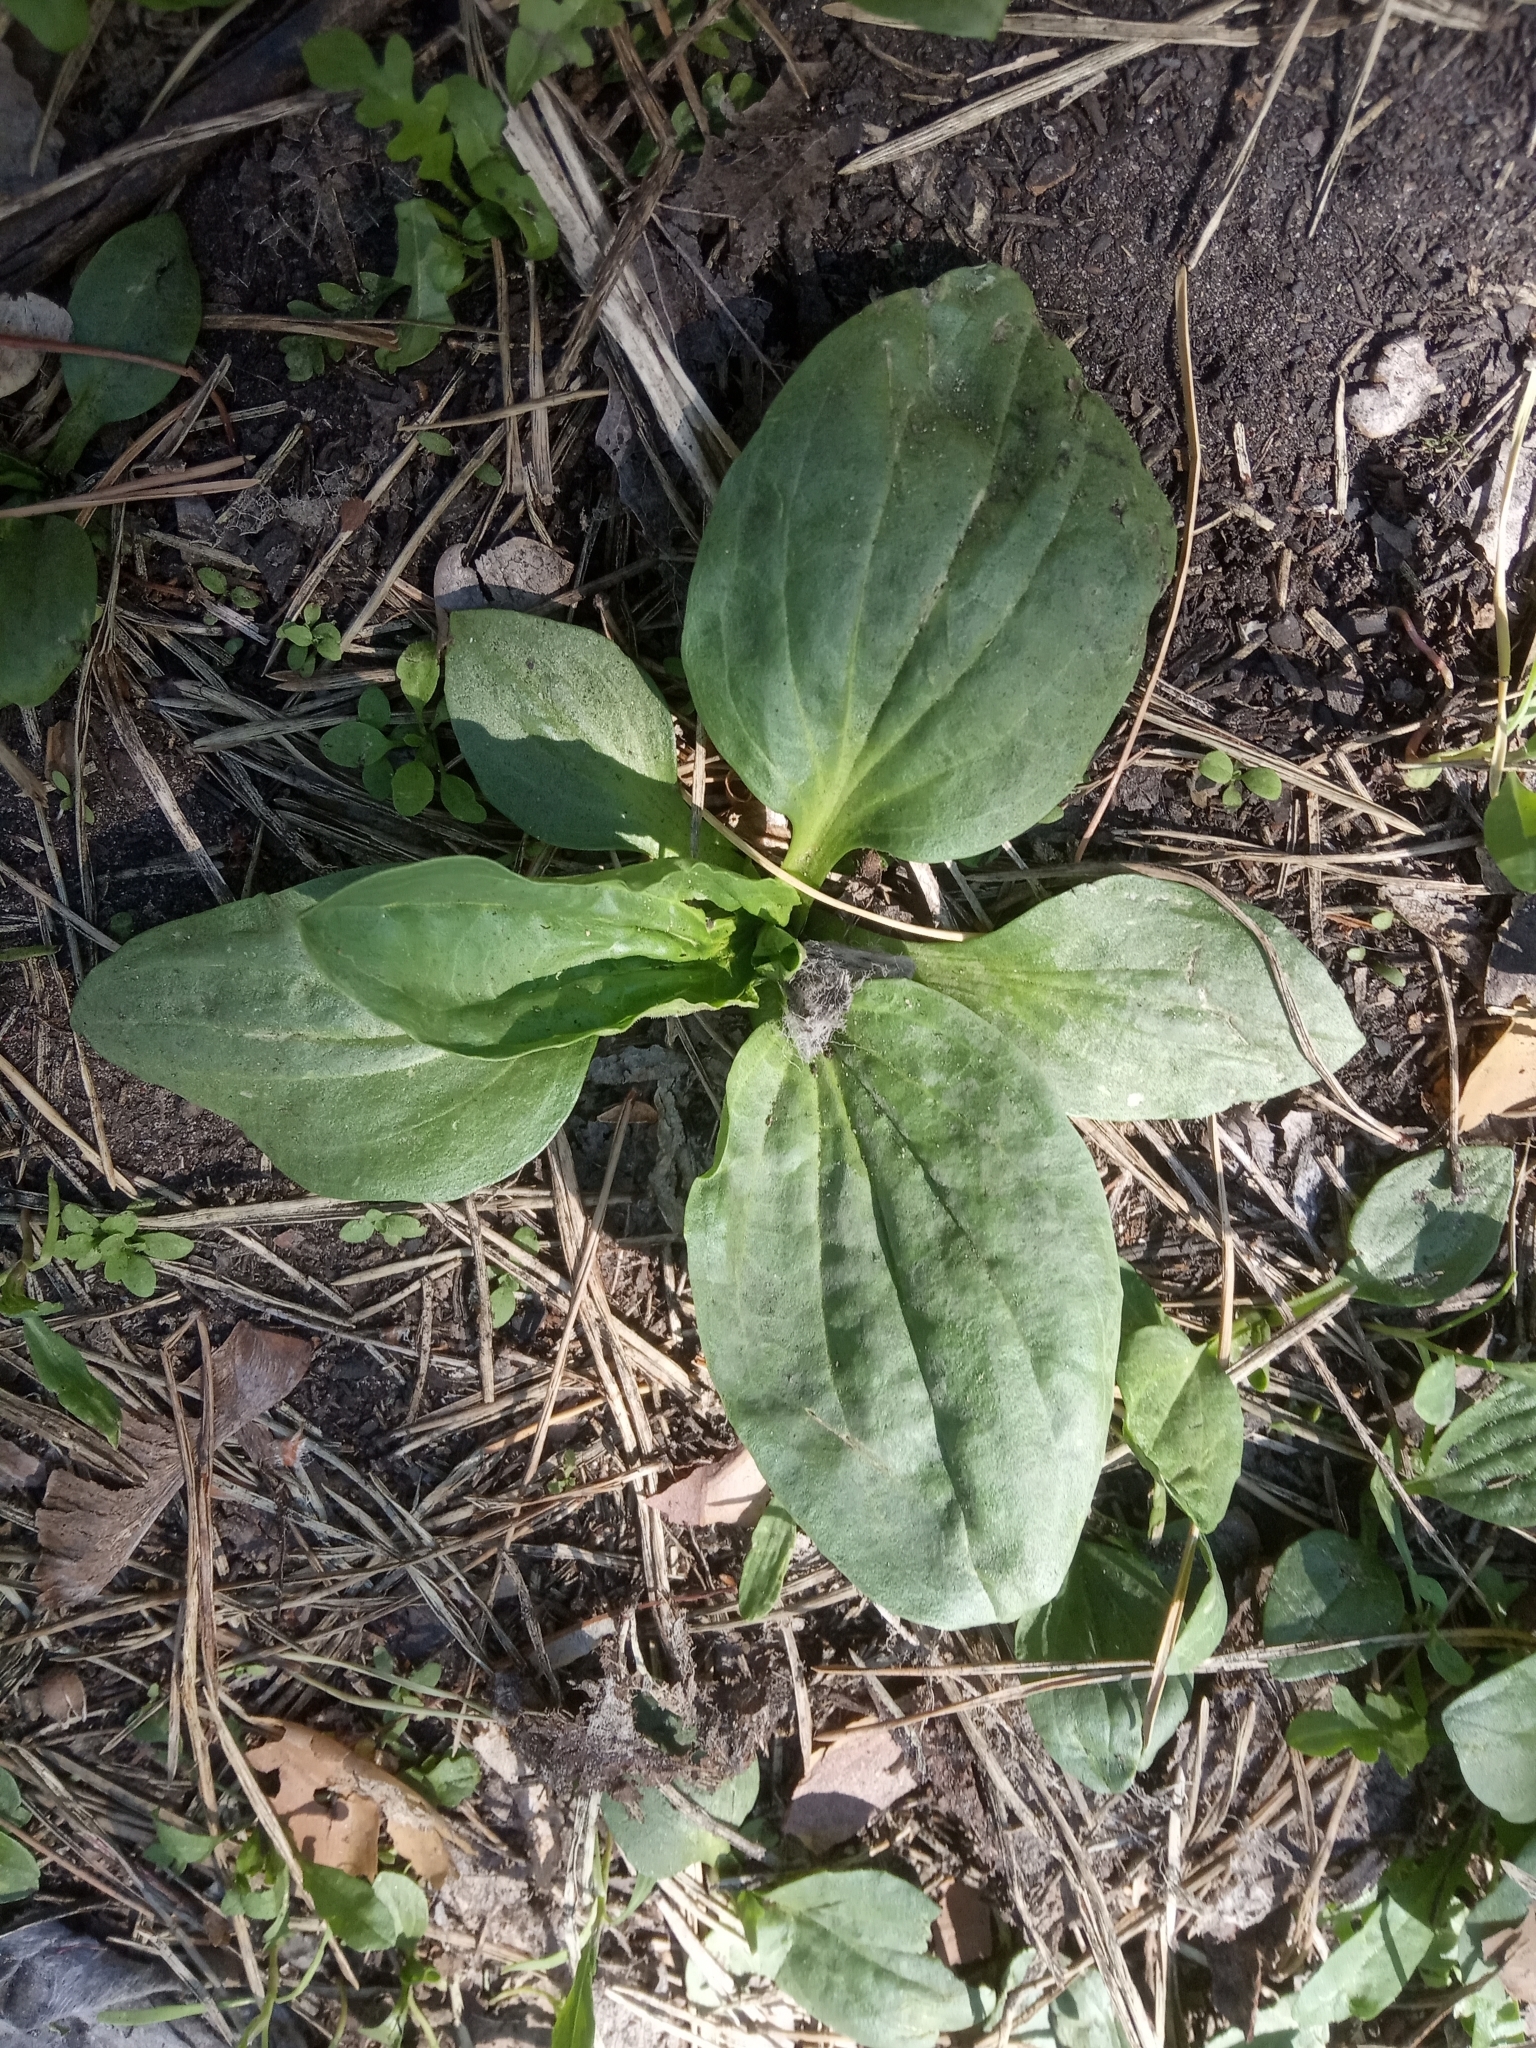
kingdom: Plantae
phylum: Tracheophyta
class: Magnoliopsida
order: Lamiales
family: Plantaginaceae
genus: Plantago
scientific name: Plantago major
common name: Common plantain
